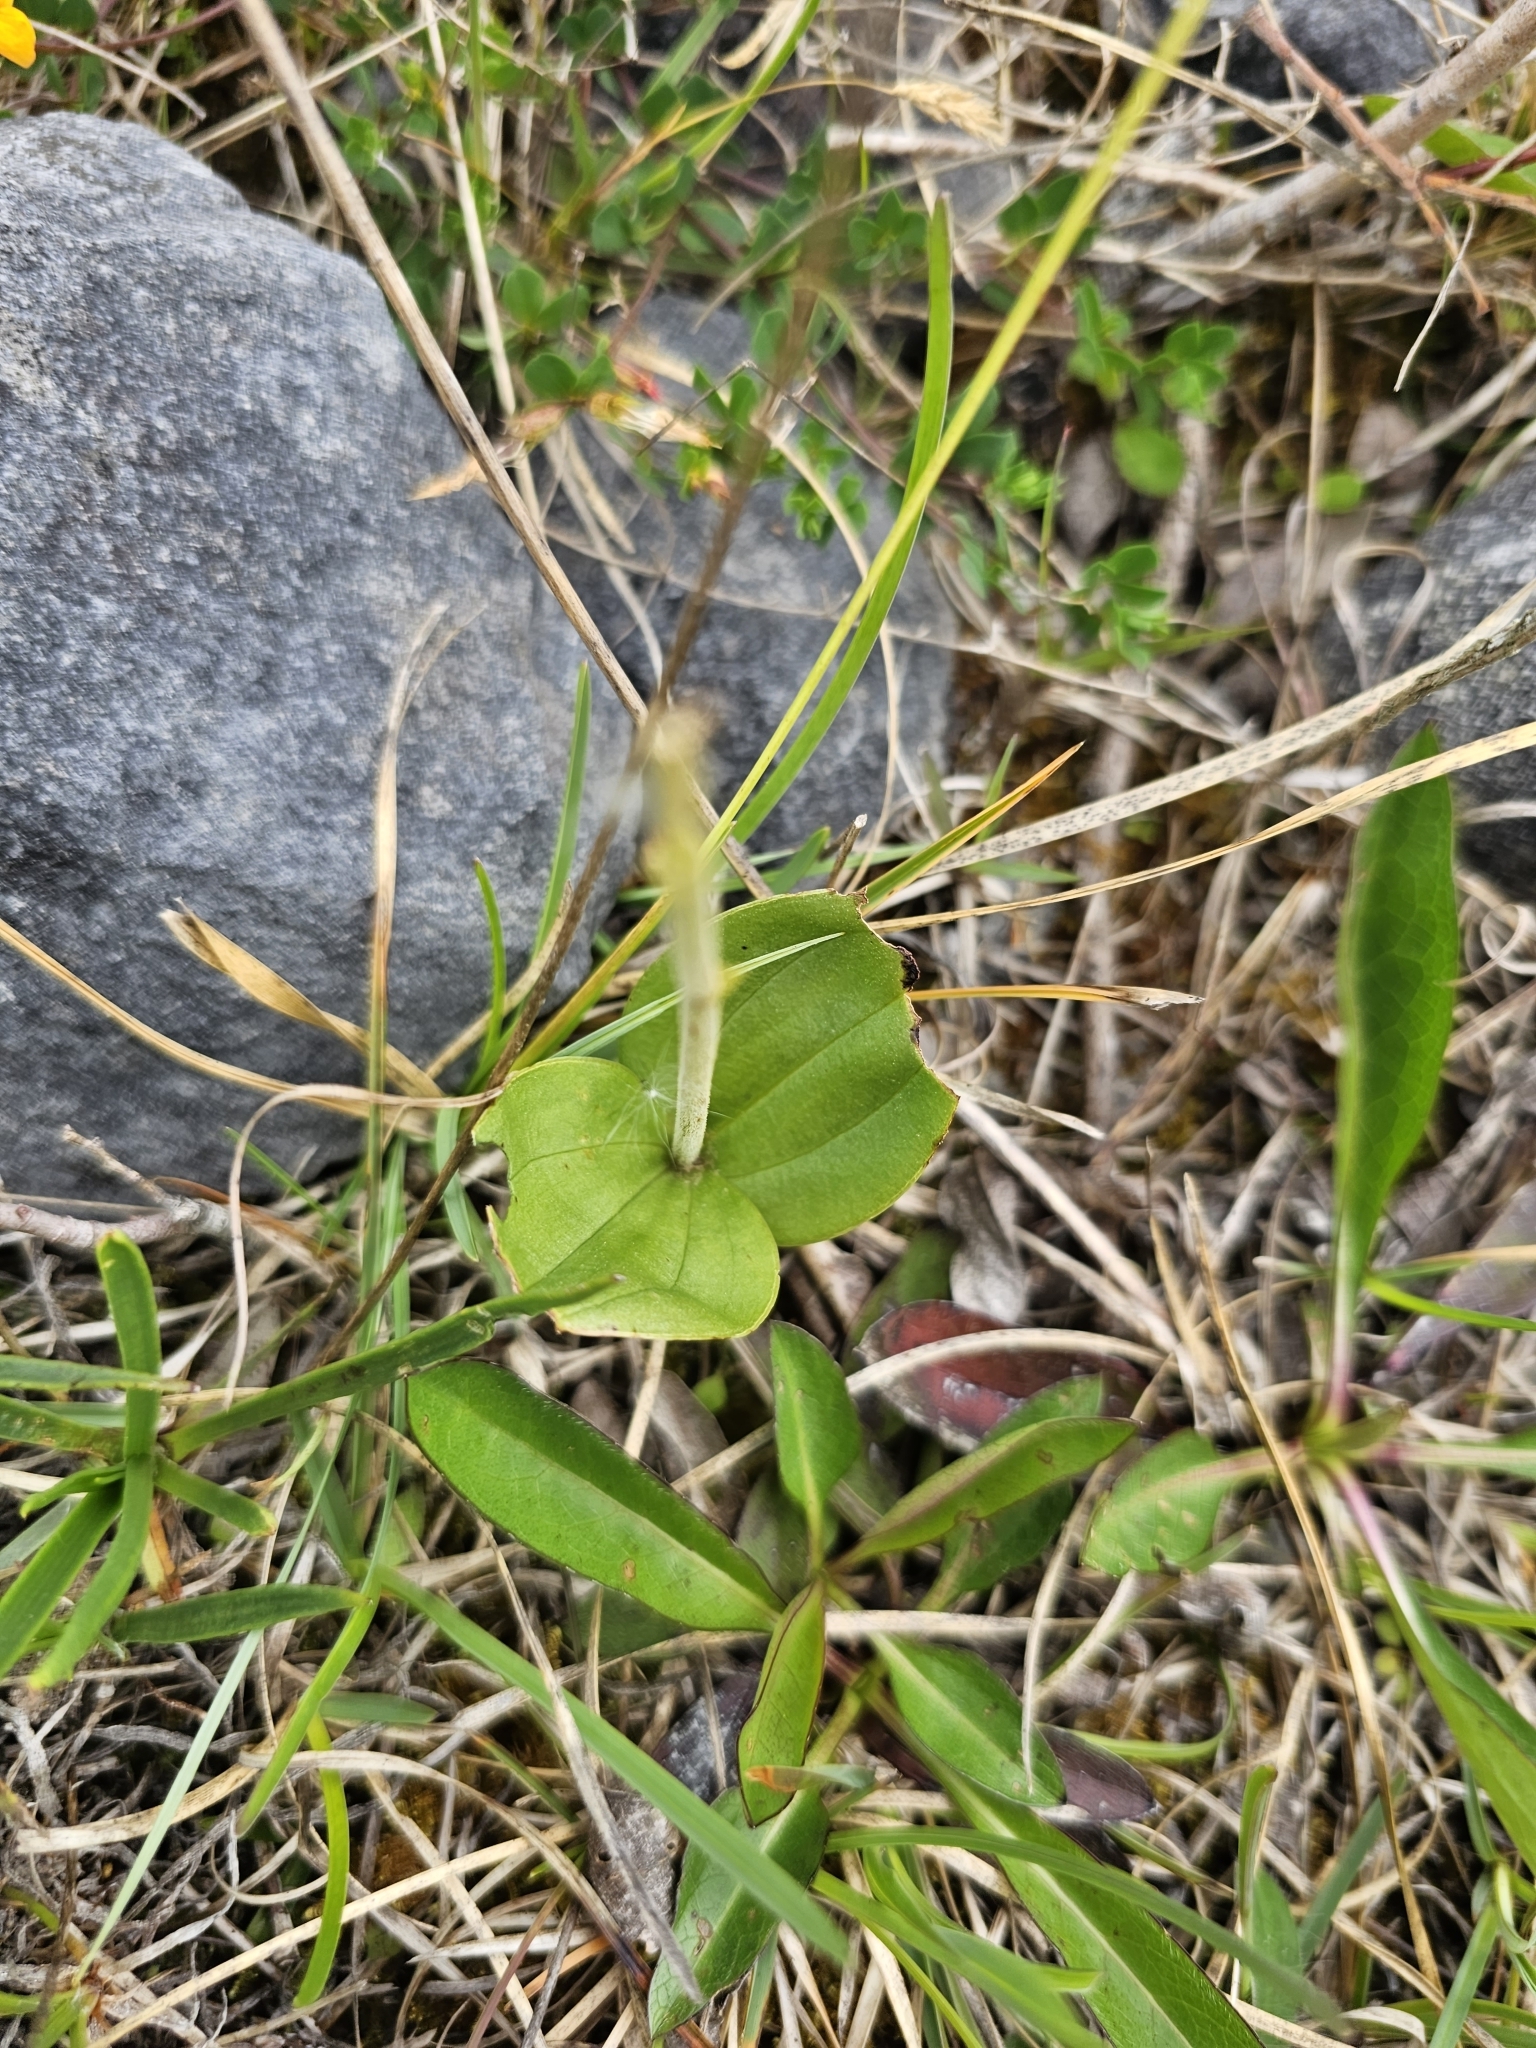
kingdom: Plantae
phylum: Tracheophyta
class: Liliopsida
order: Asparagales
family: Orchidaceae
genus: Neottia
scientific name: Neottia ovata
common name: Common twayblade
